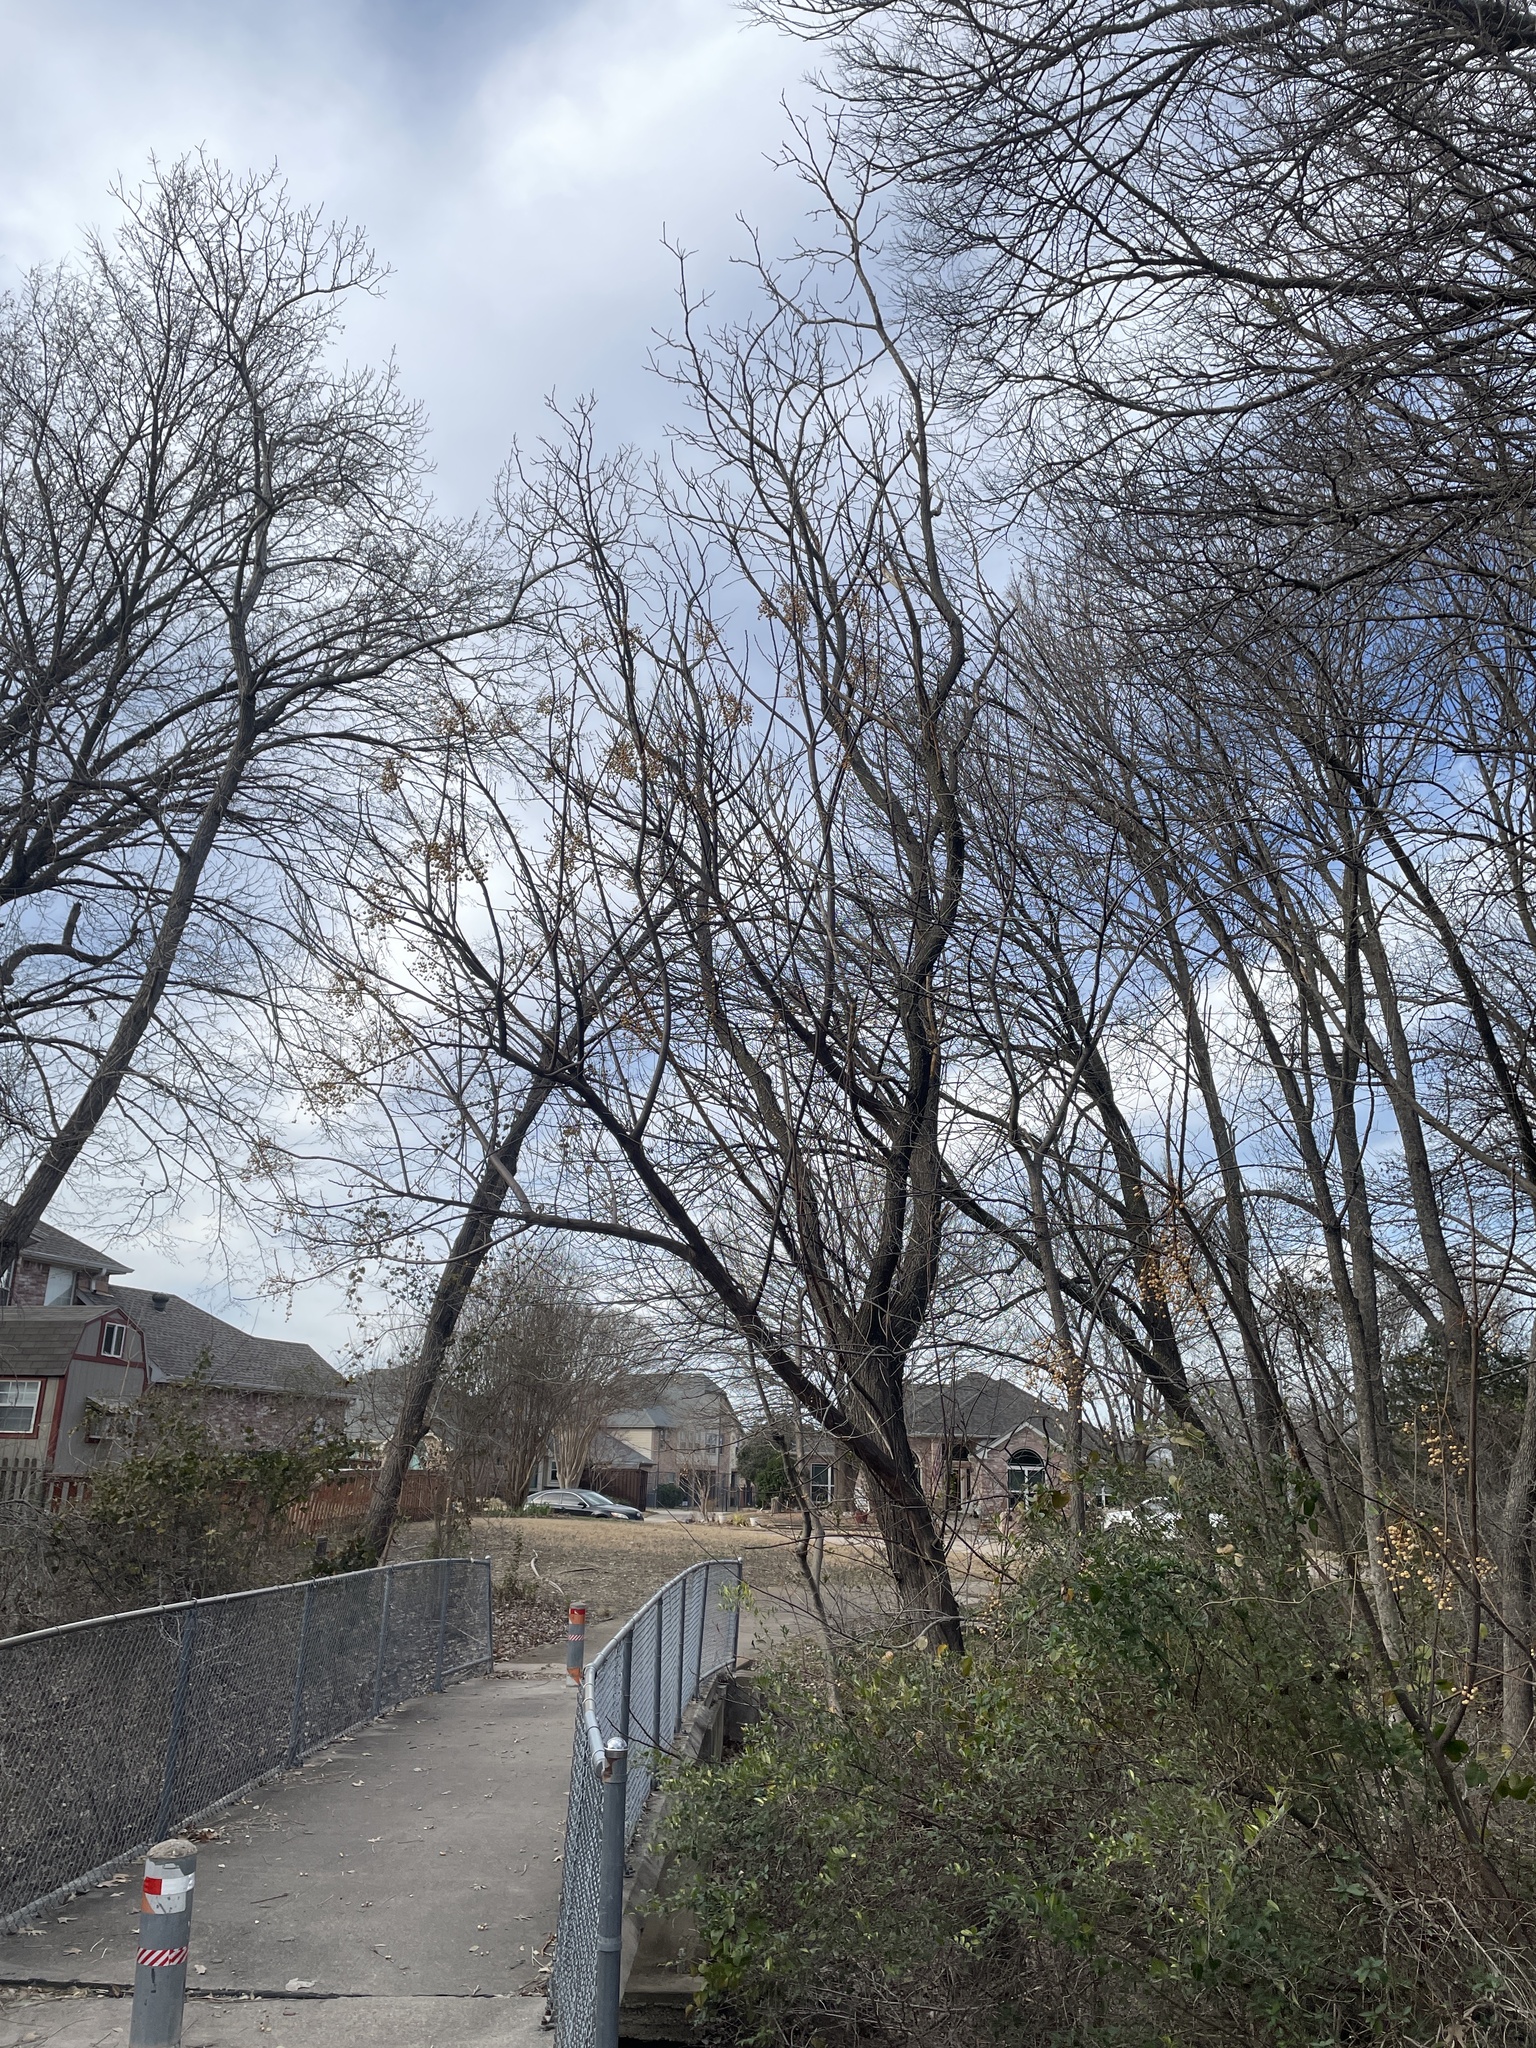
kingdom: Plantae
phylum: Tracheophyta
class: Magnoliopsida
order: Sapindales
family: Meliaceae
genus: Melia
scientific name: Melia azedarach
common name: Chinaberrytree
